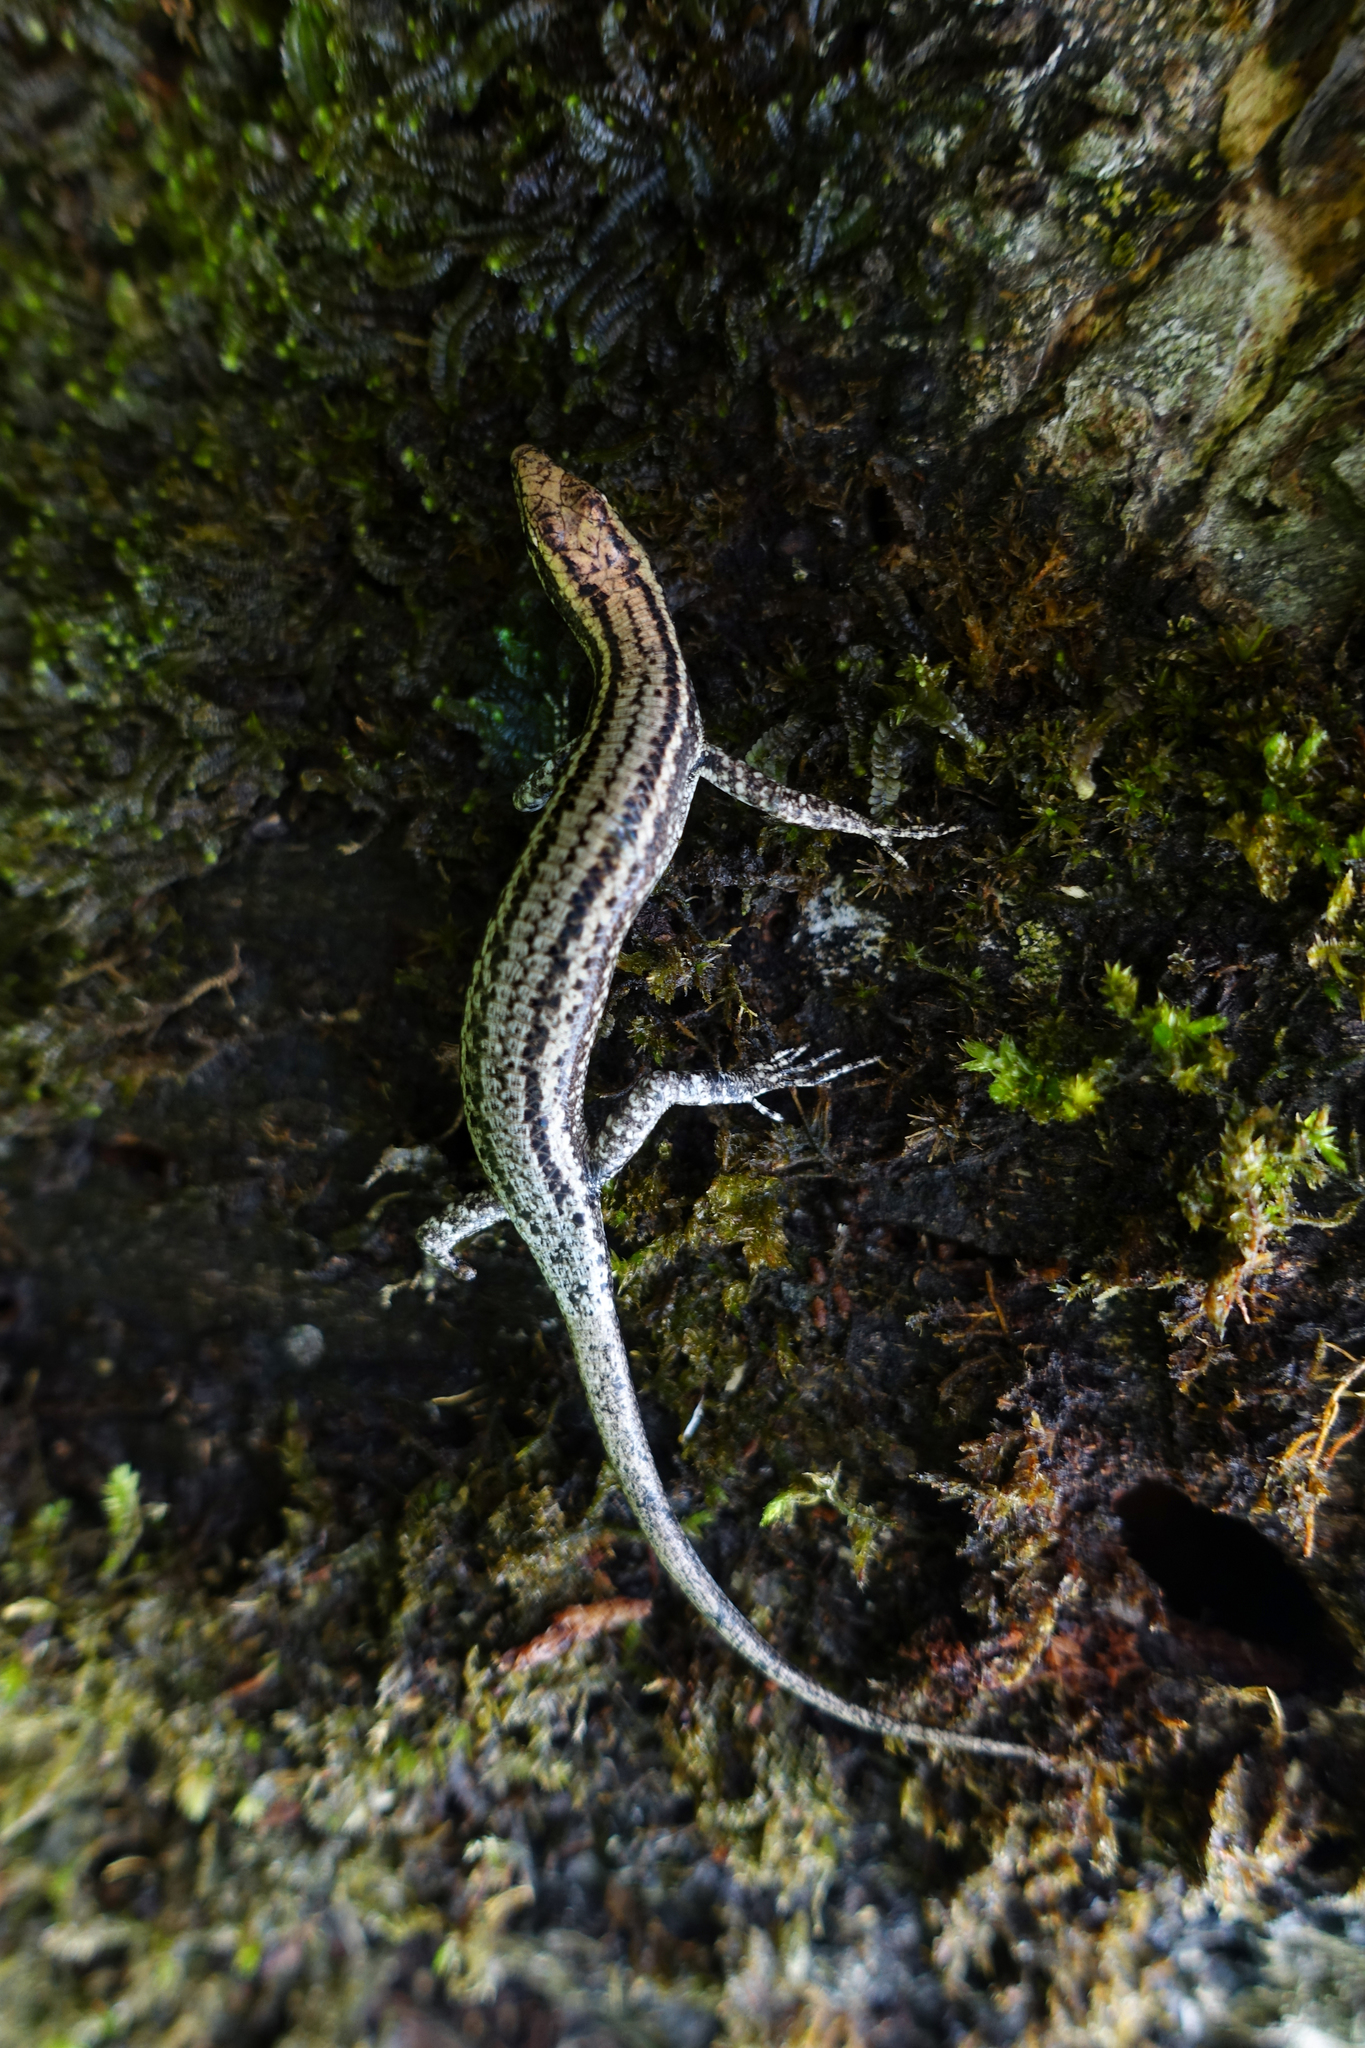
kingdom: Animalia
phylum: Chordata
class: Squamata
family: Scincidae
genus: Cryptoblepharus
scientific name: Cryptoblepharus novaeguineae
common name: New guinea snake-eyed skink
